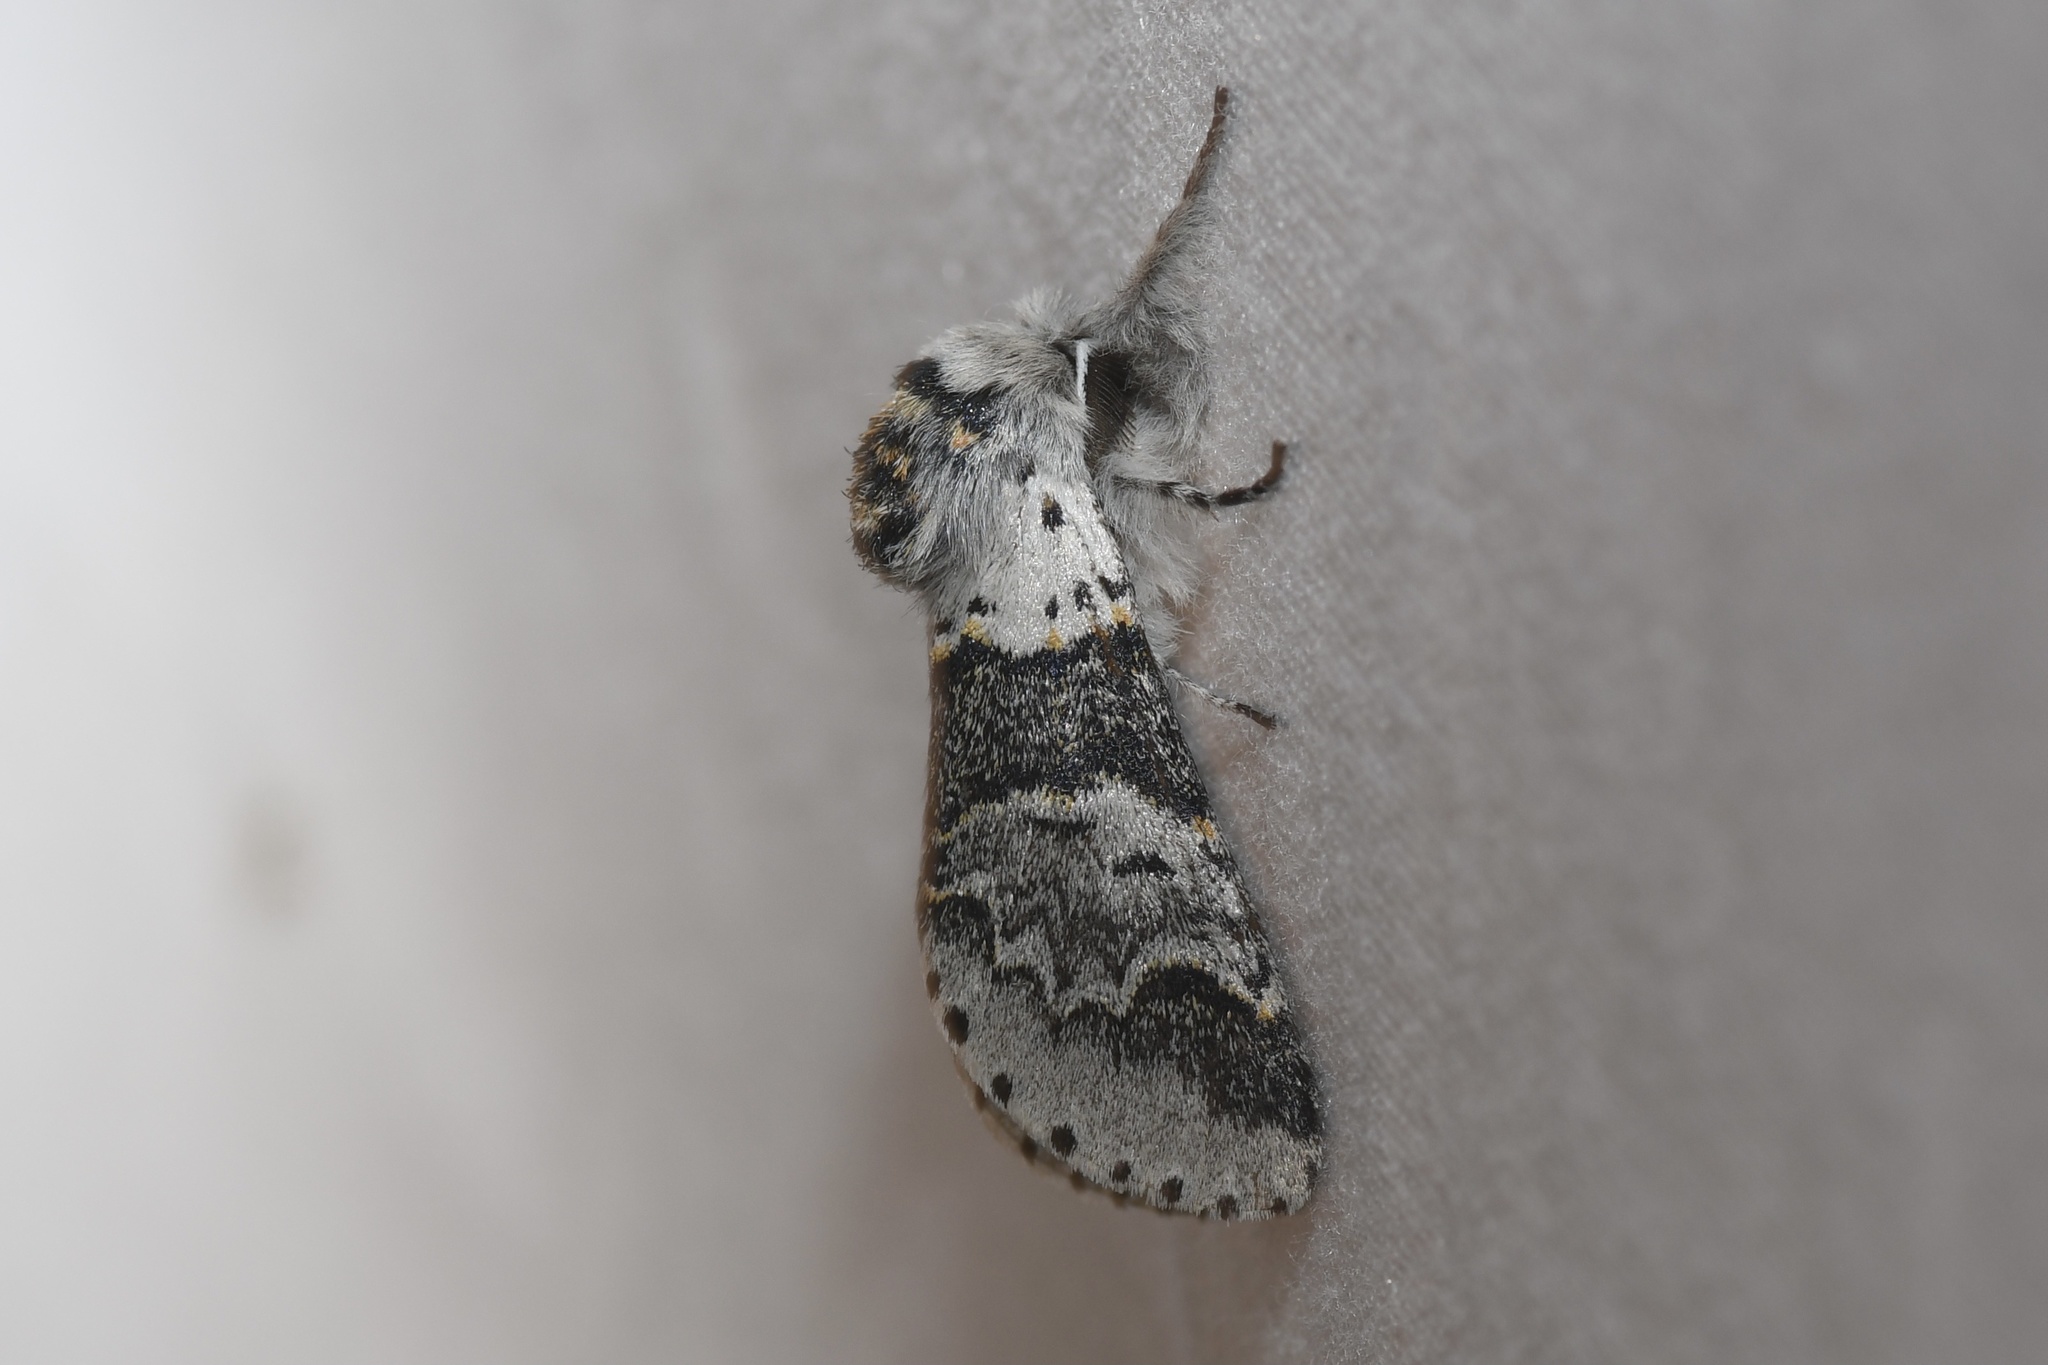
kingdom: Animalia
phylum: Arthropoda
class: Insecta
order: Lepidoptera
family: Notodontidae
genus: Furcula
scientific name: Furcula occidentalis
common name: Western furcula moth
